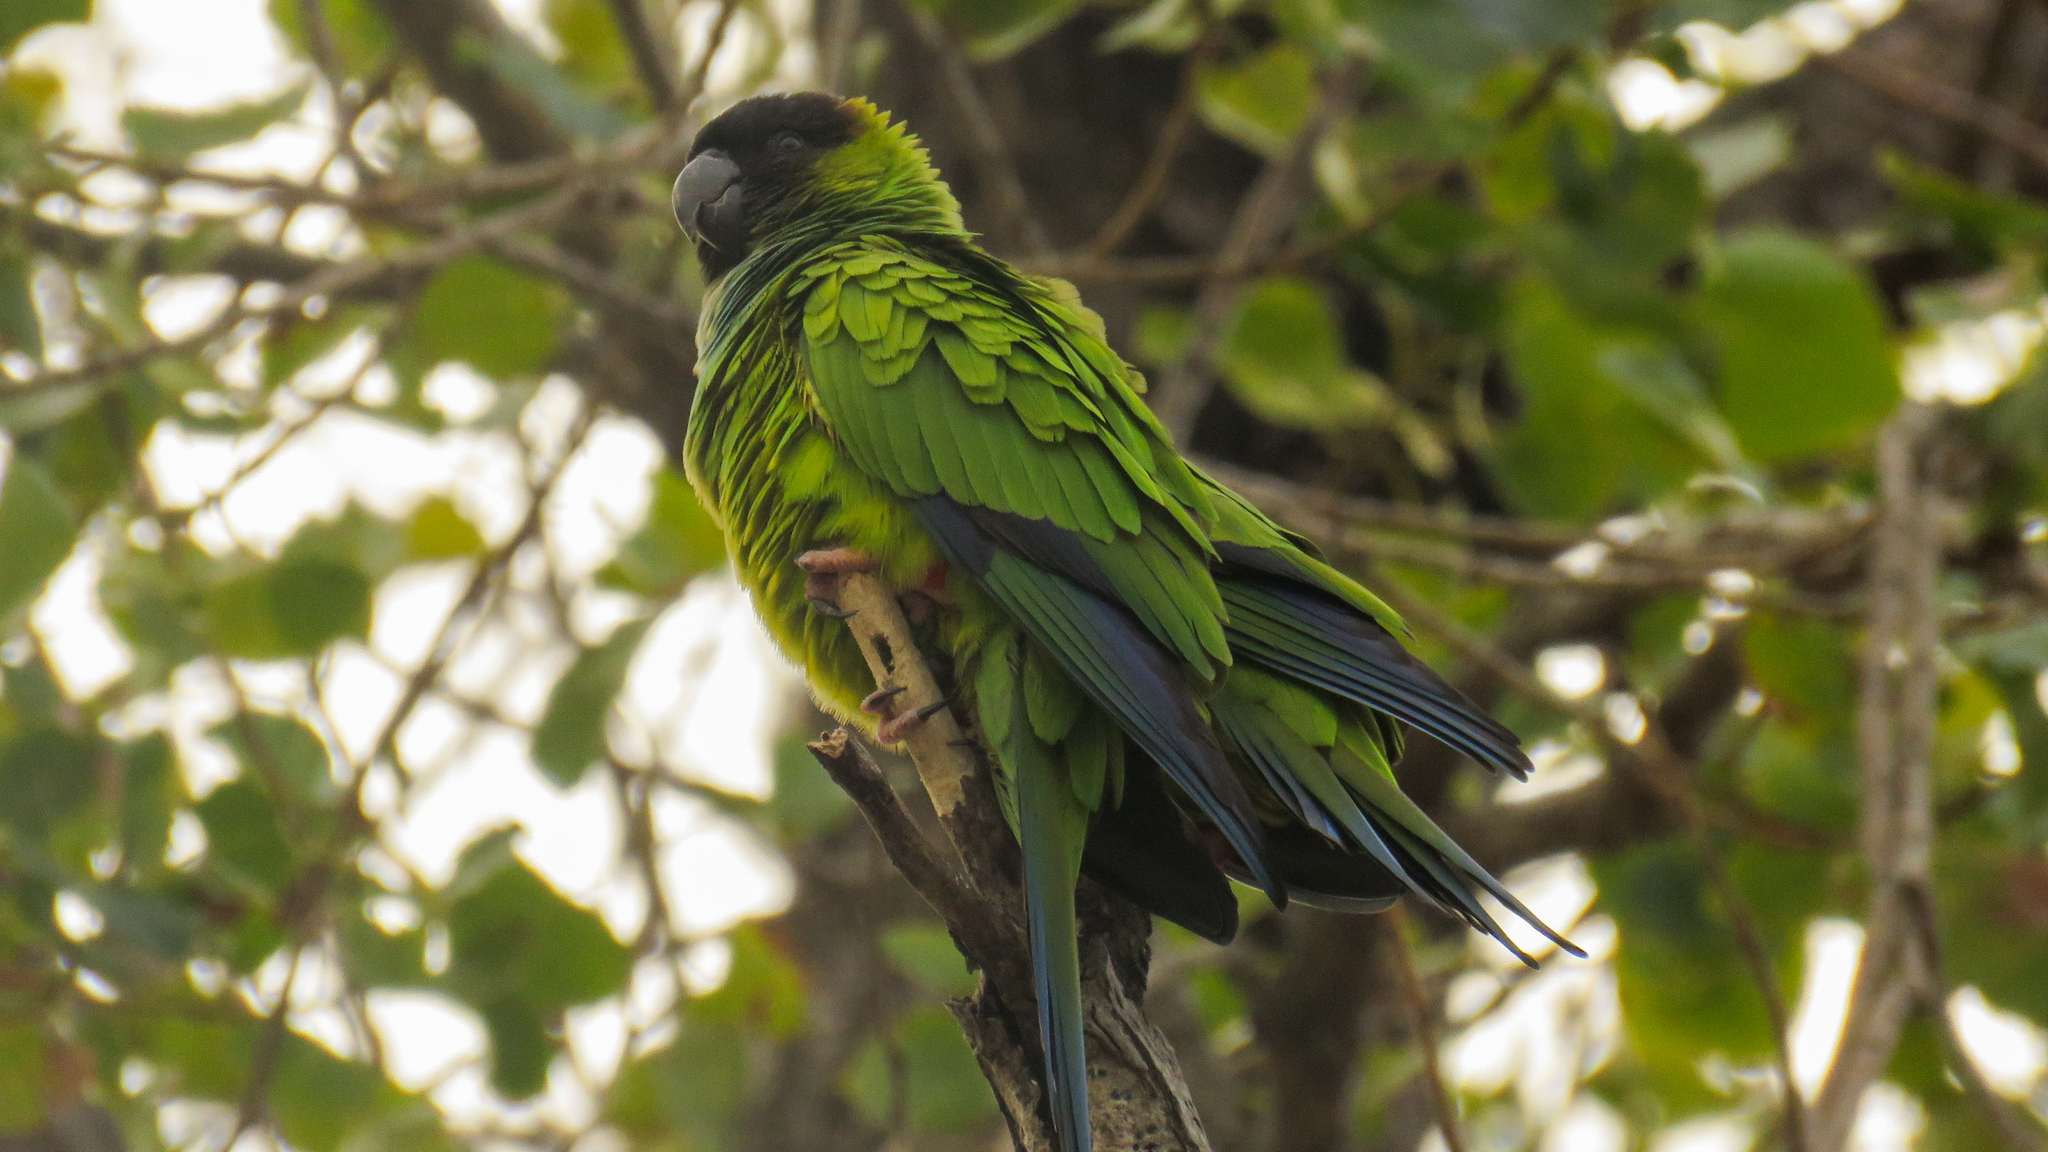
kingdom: Animalia
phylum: Chordata
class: Aves
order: Psittaciformes
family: Psittacidae
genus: Nandayus
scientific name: Nandayus nenday
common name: Nanday parakeet
